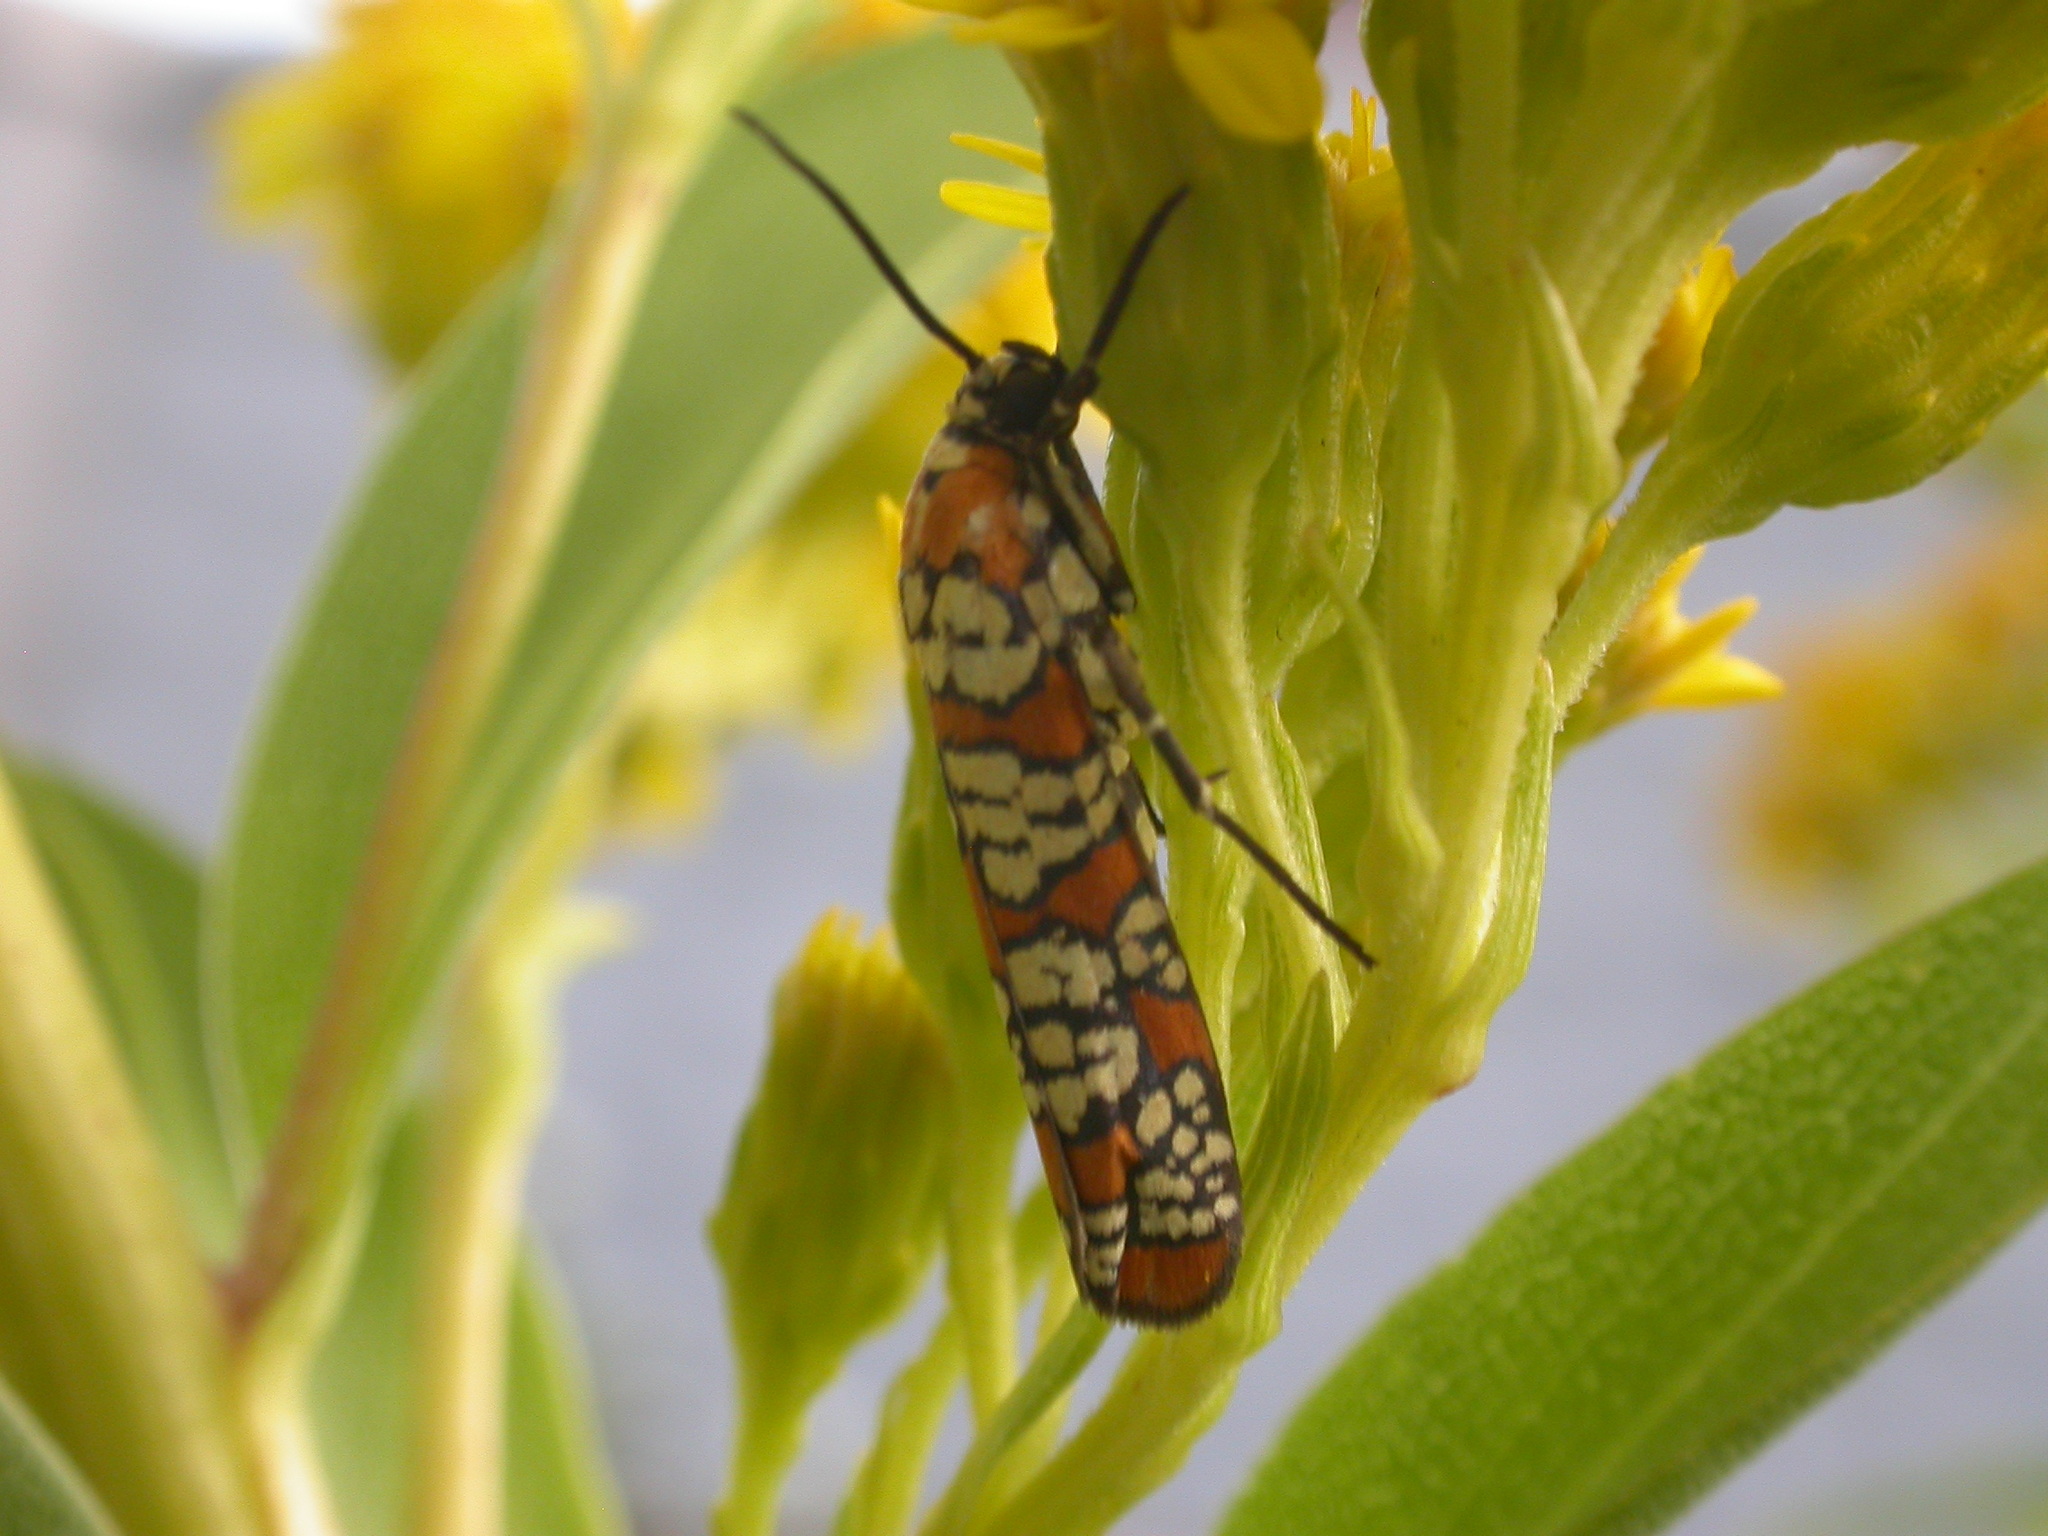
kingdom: Animalia
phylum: Arthropoda
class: Insecta
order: Lepidoptera
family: Attevidae
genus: Atteva
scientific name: Atteva punctella
